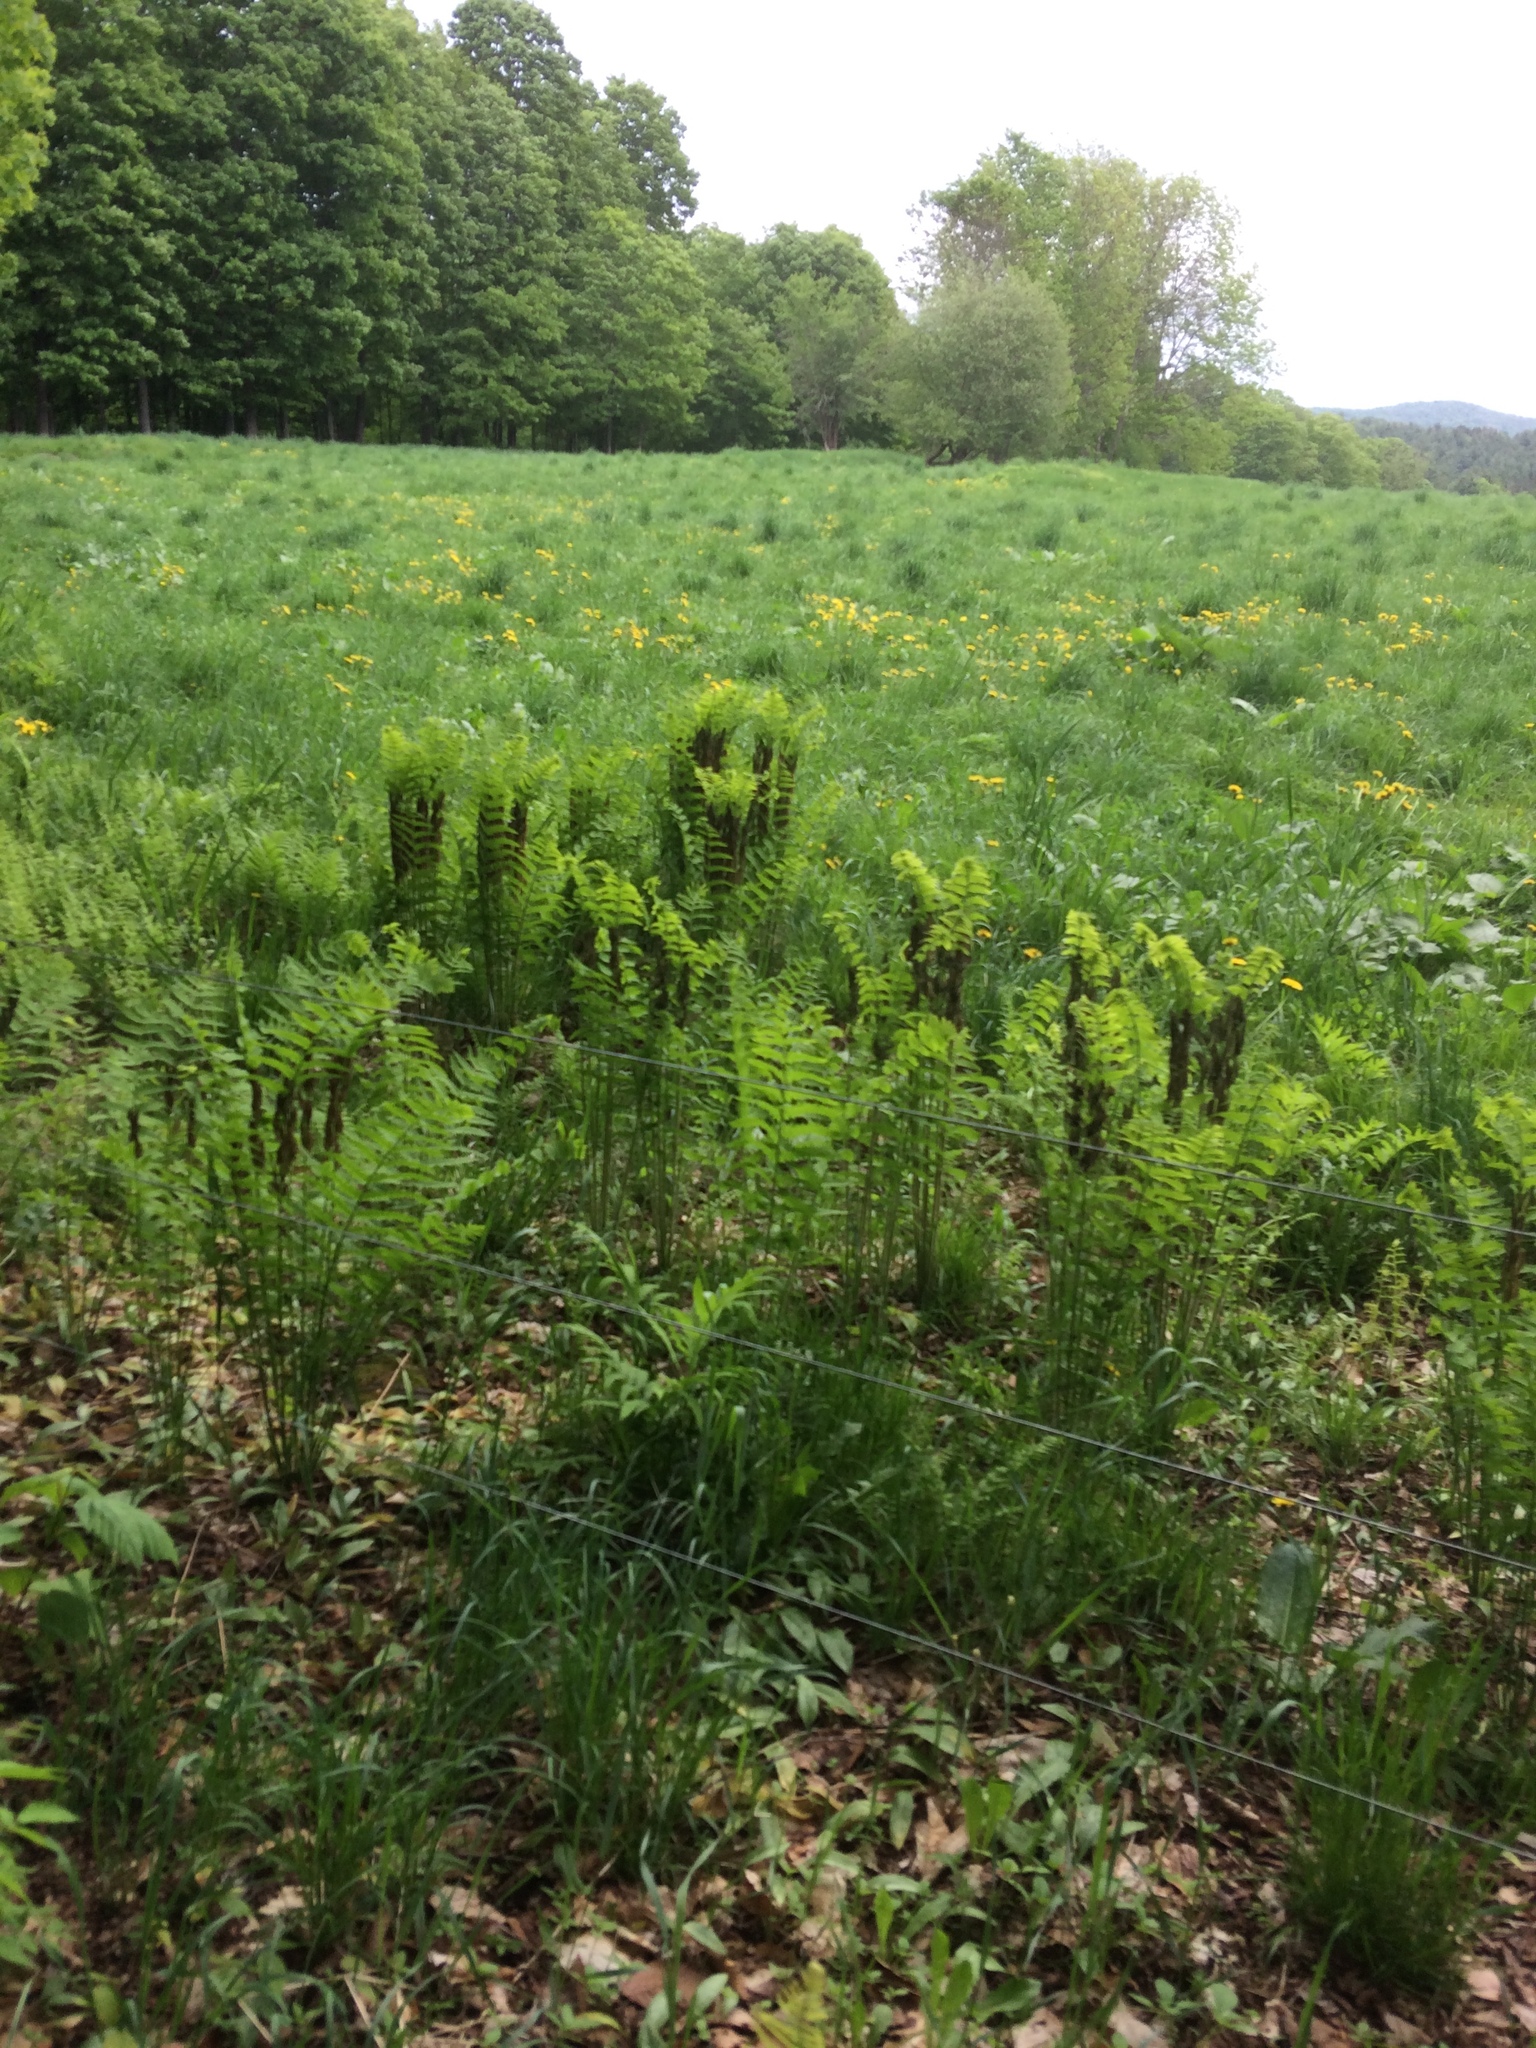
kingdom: Plantae
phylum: Tracheophyta
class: Polypodiopsida
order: Osmundales
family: Osmundaceae
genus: Claytosmunda
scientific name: Claytosmunda claytoniana
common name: Clayton's fern
